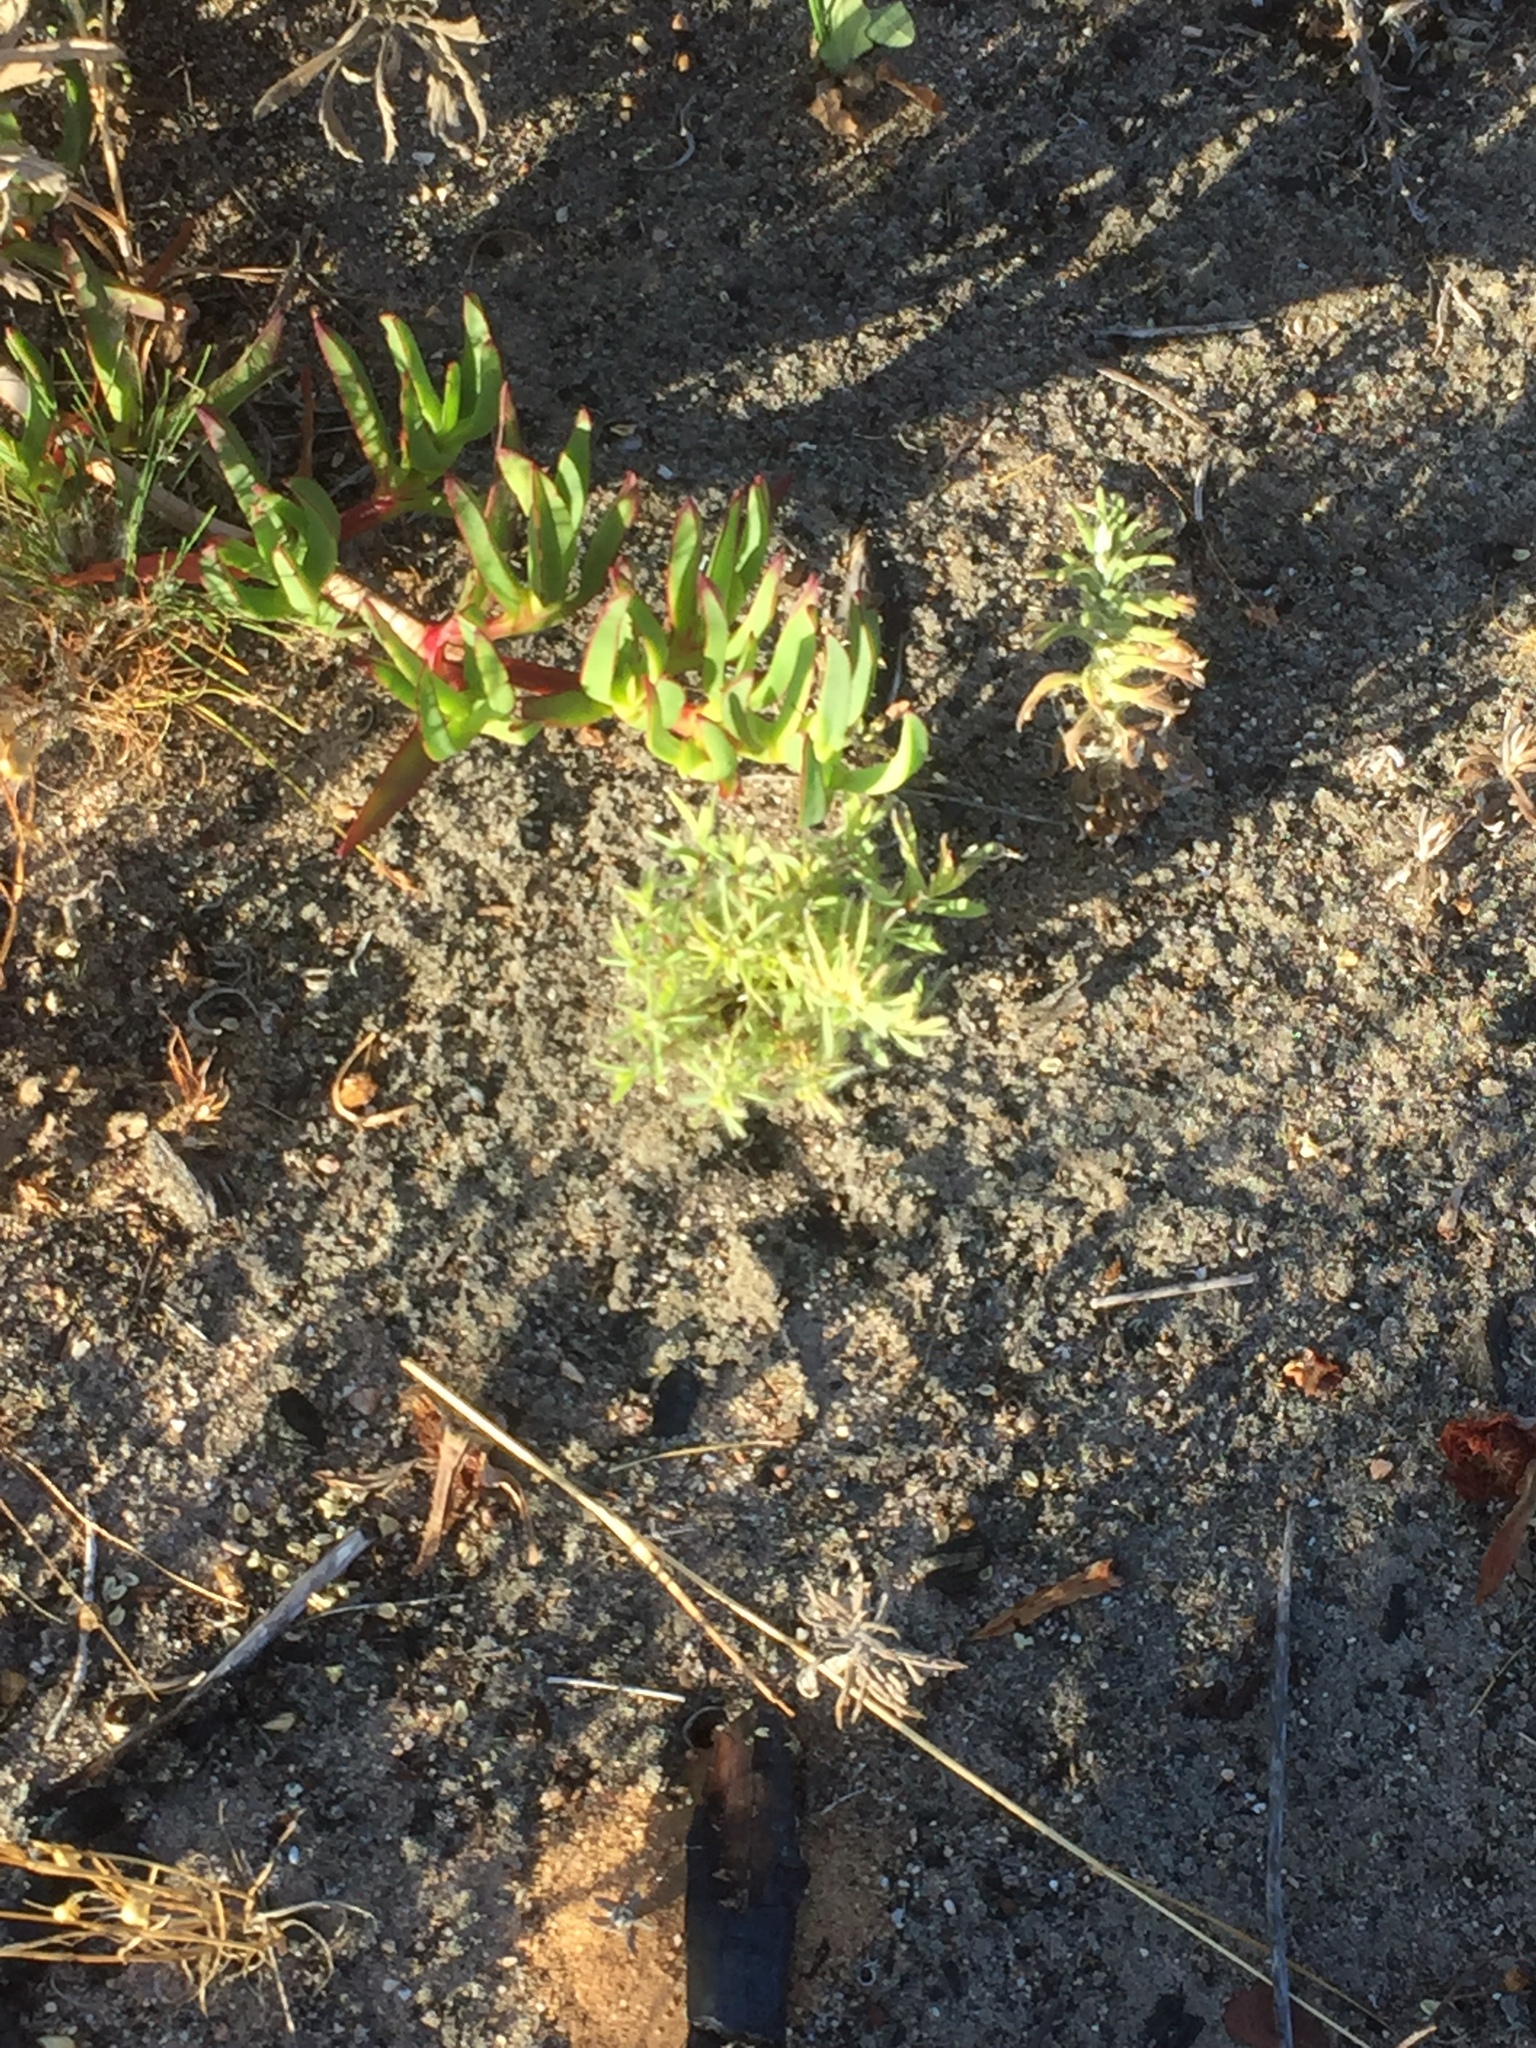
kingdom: Plantae
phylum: Tracheophyta
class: Magnoliopsida
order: Proteales
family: Proteaceae
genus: Leucadendron
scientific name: Leucadendron salignum
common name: Common sunshine conebush
